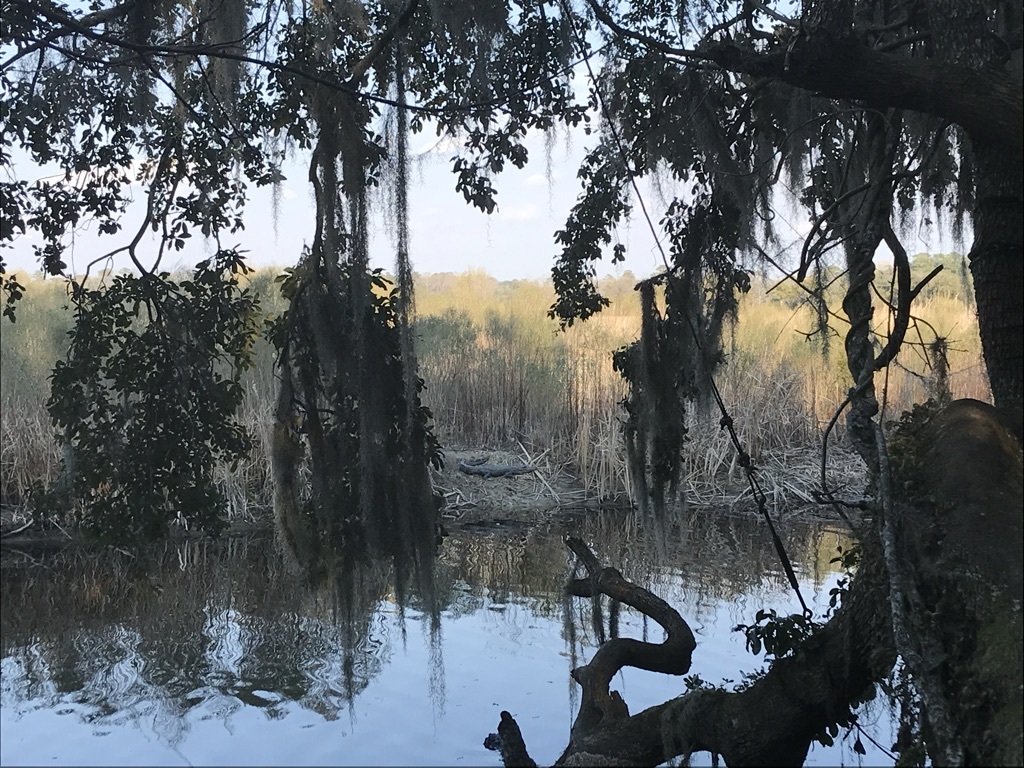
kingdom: Animalia
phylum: Chordata
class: Crocodylia
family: Alligatoridae
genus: Alligator
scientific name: Alligator mississippiensis
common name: American alligator
